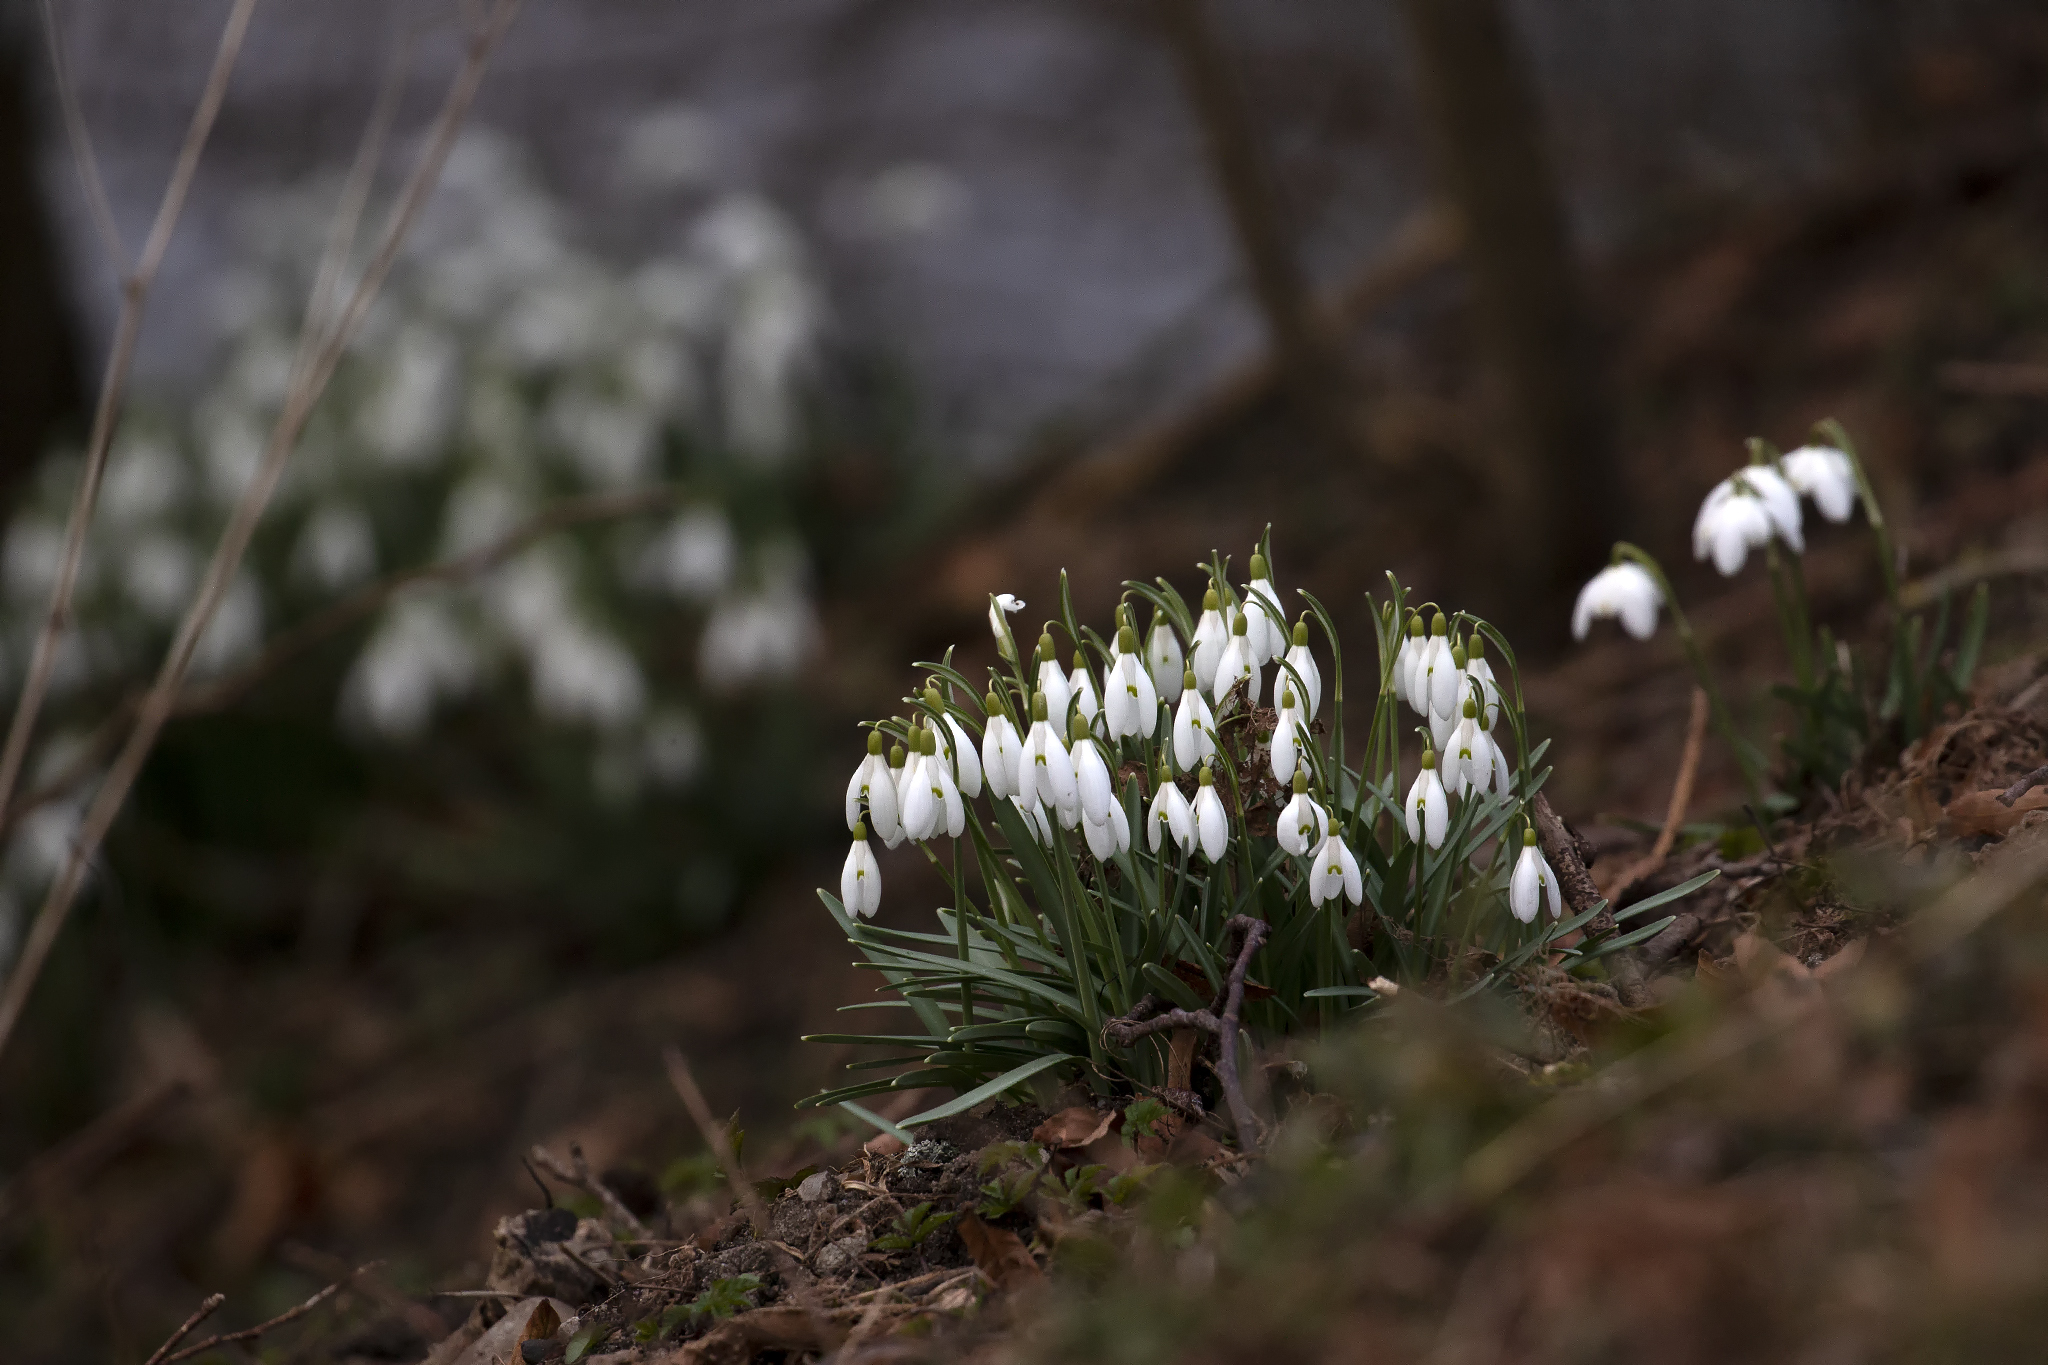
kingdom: Plantae
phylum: Tracheophyta
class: Liliopsida
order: Asparagales
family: Amaryllidaceae
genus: Galanthus
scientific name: Galanthus nivalis
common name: Snowdrop
